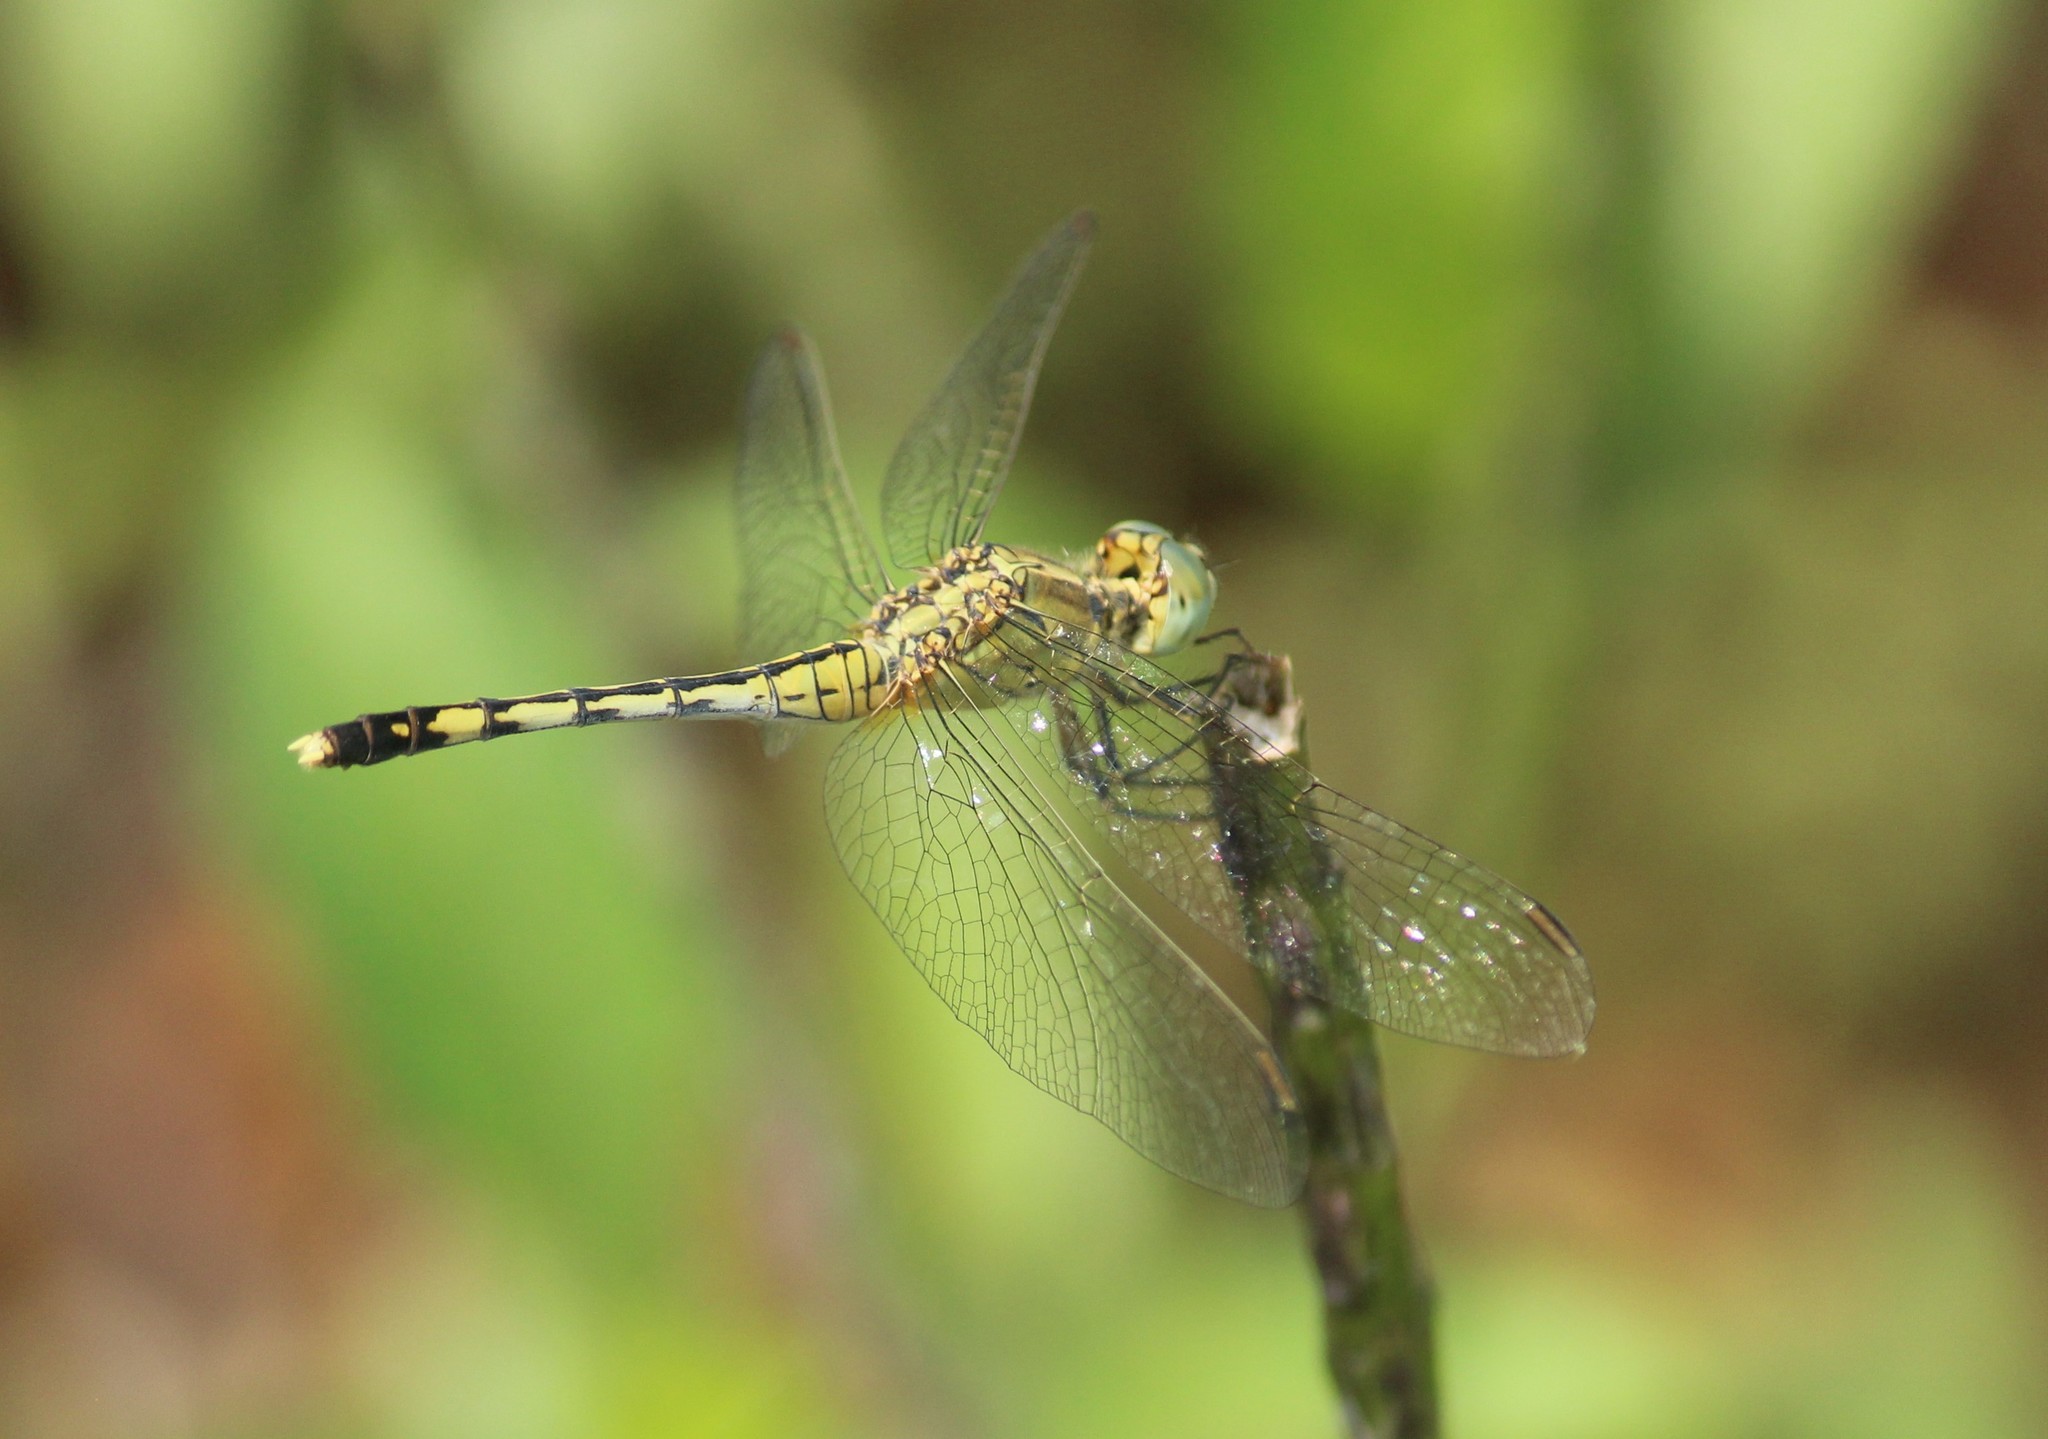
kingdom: Animalia
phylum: Arthropoda
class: Insecta
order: Odonata
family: Libellulidae
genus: Diplacodes
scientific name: Diplacodes trivialis
